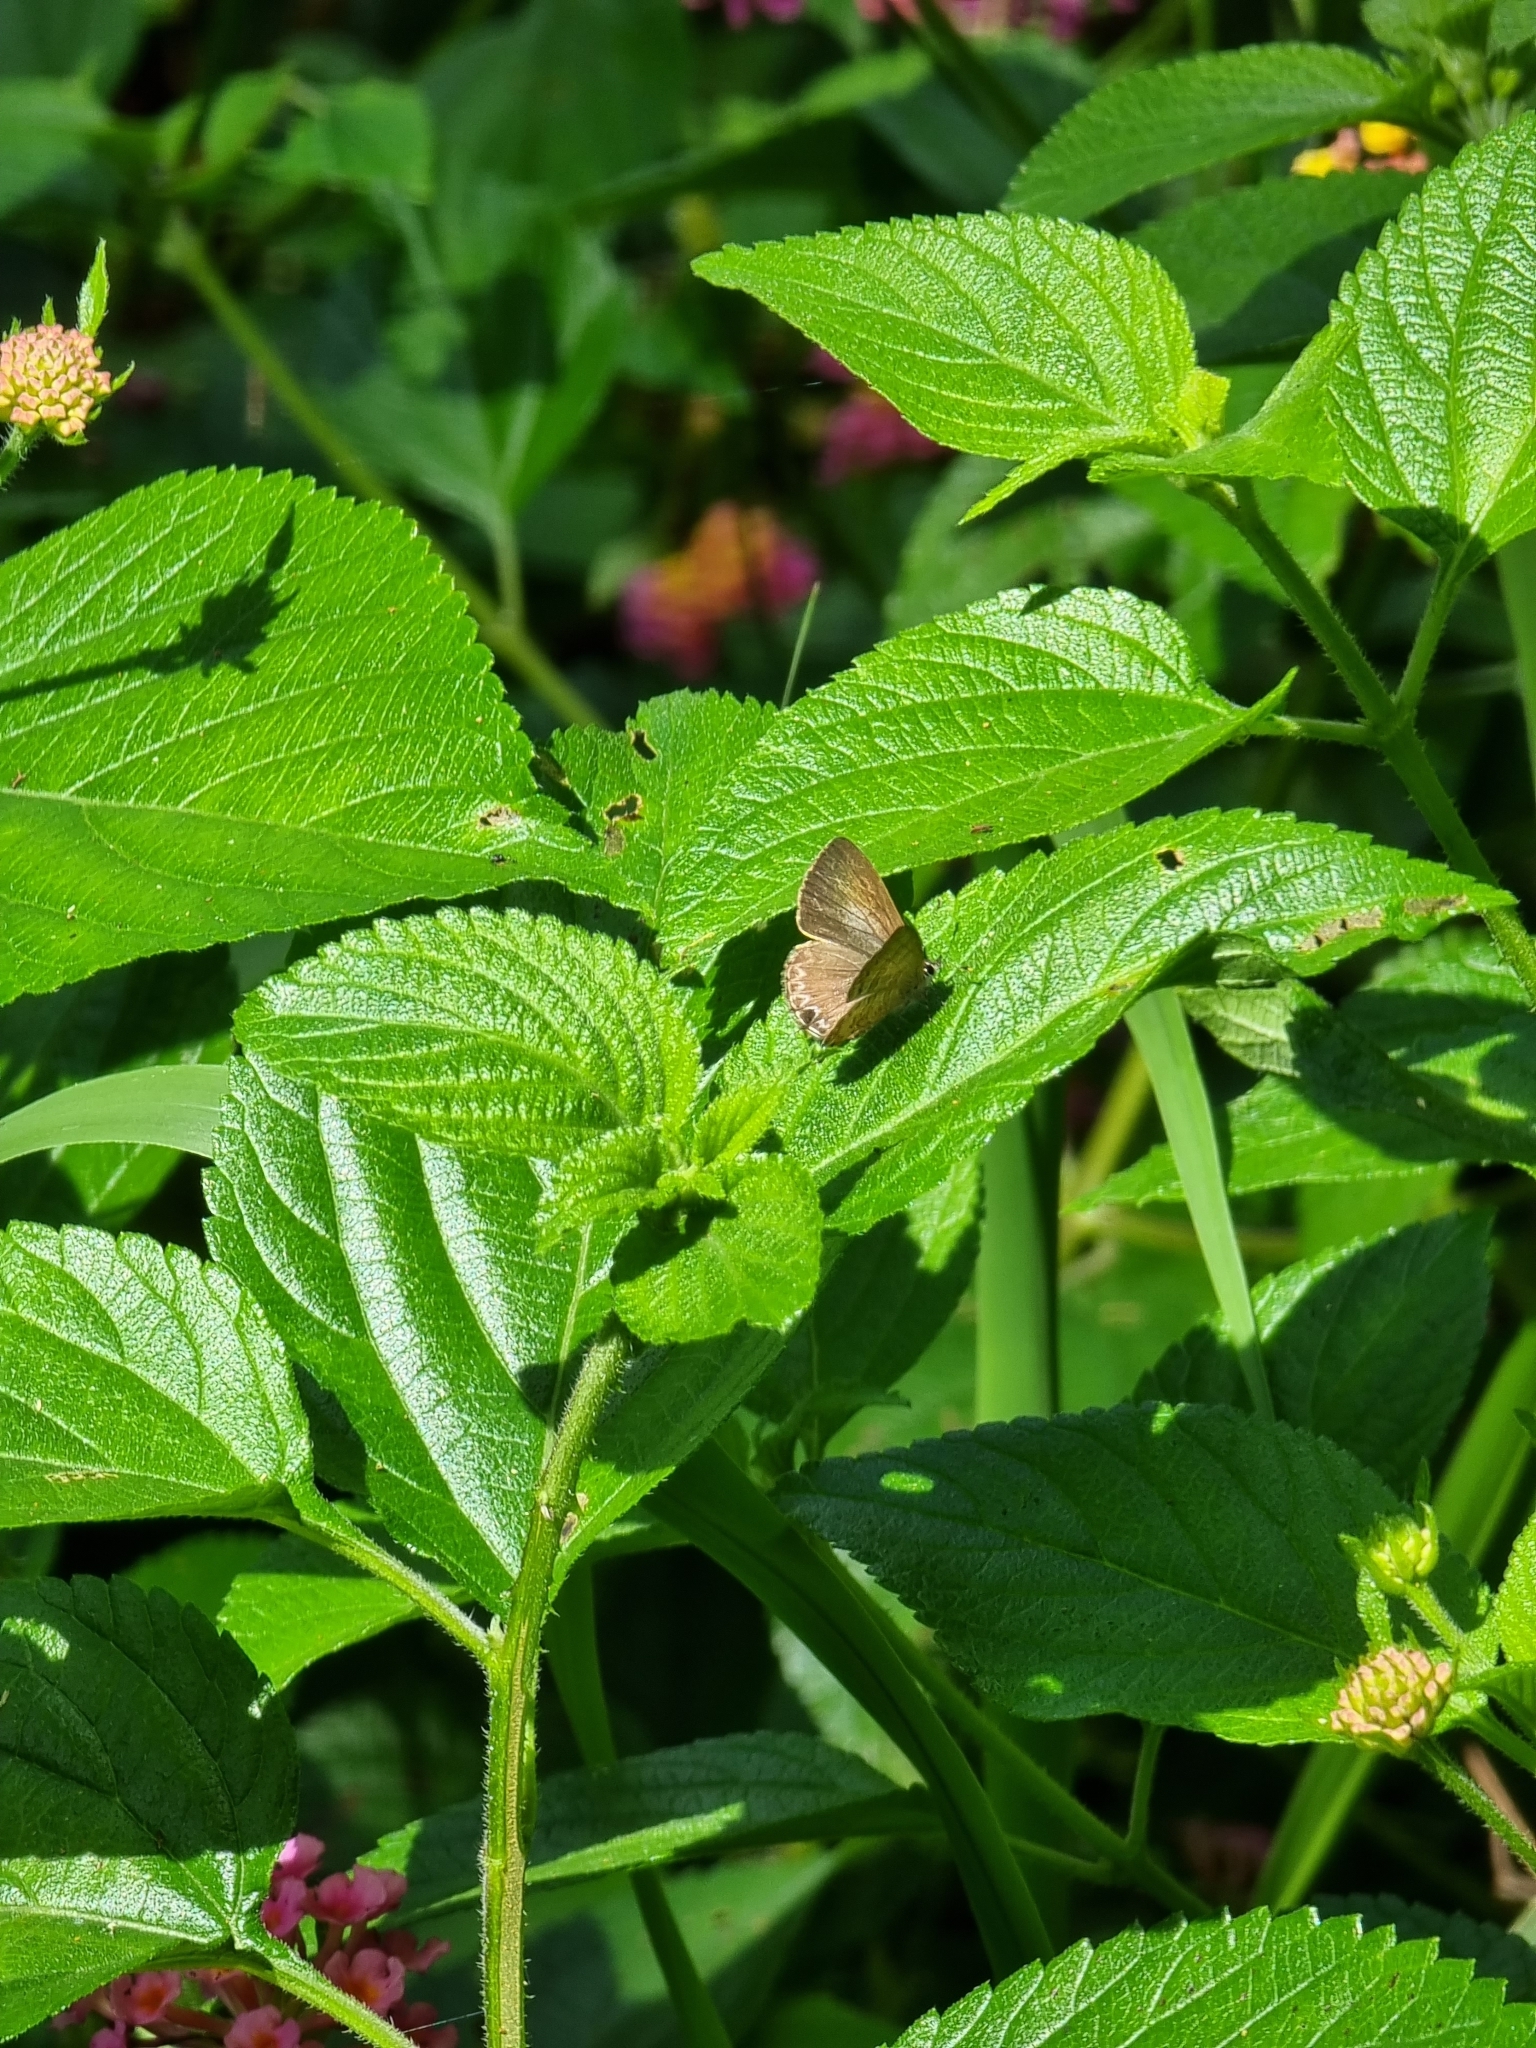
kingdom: Animalia
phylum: Arthropoda
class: Insecta
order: Lepidoptera
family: Lycaenidae
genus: Catopyrops
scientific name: Catopyrops florinda
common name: Speckled line-blue
